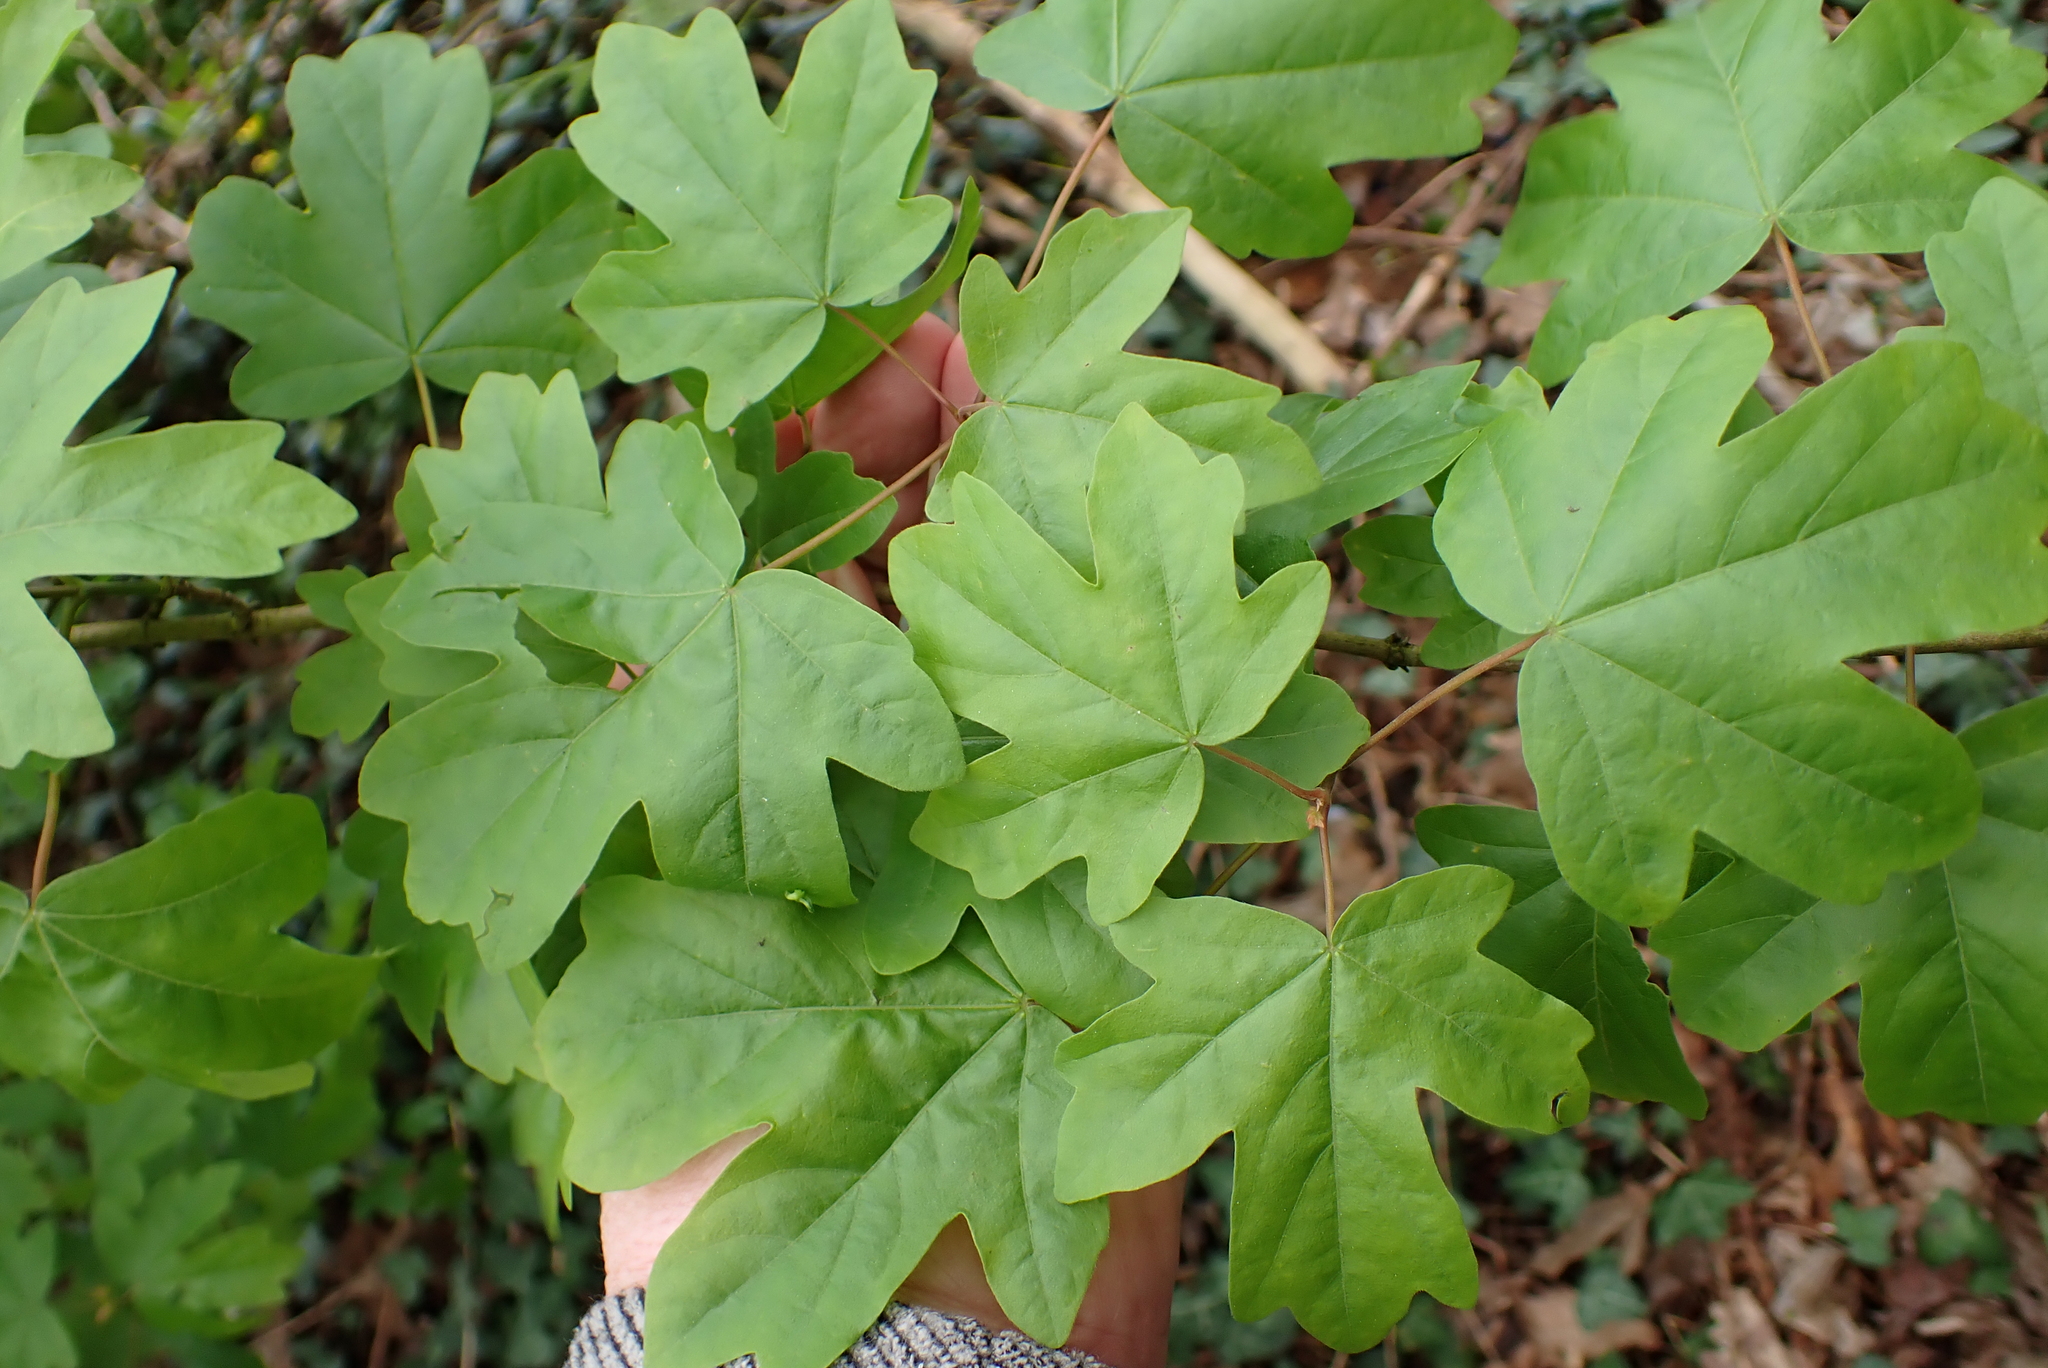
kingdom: Plantae
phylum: Tracheophyta
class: Magnoliopsida
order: Sapindales
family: Sapindaceae
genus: Acer
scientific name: Acer campestre
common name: Field maple
